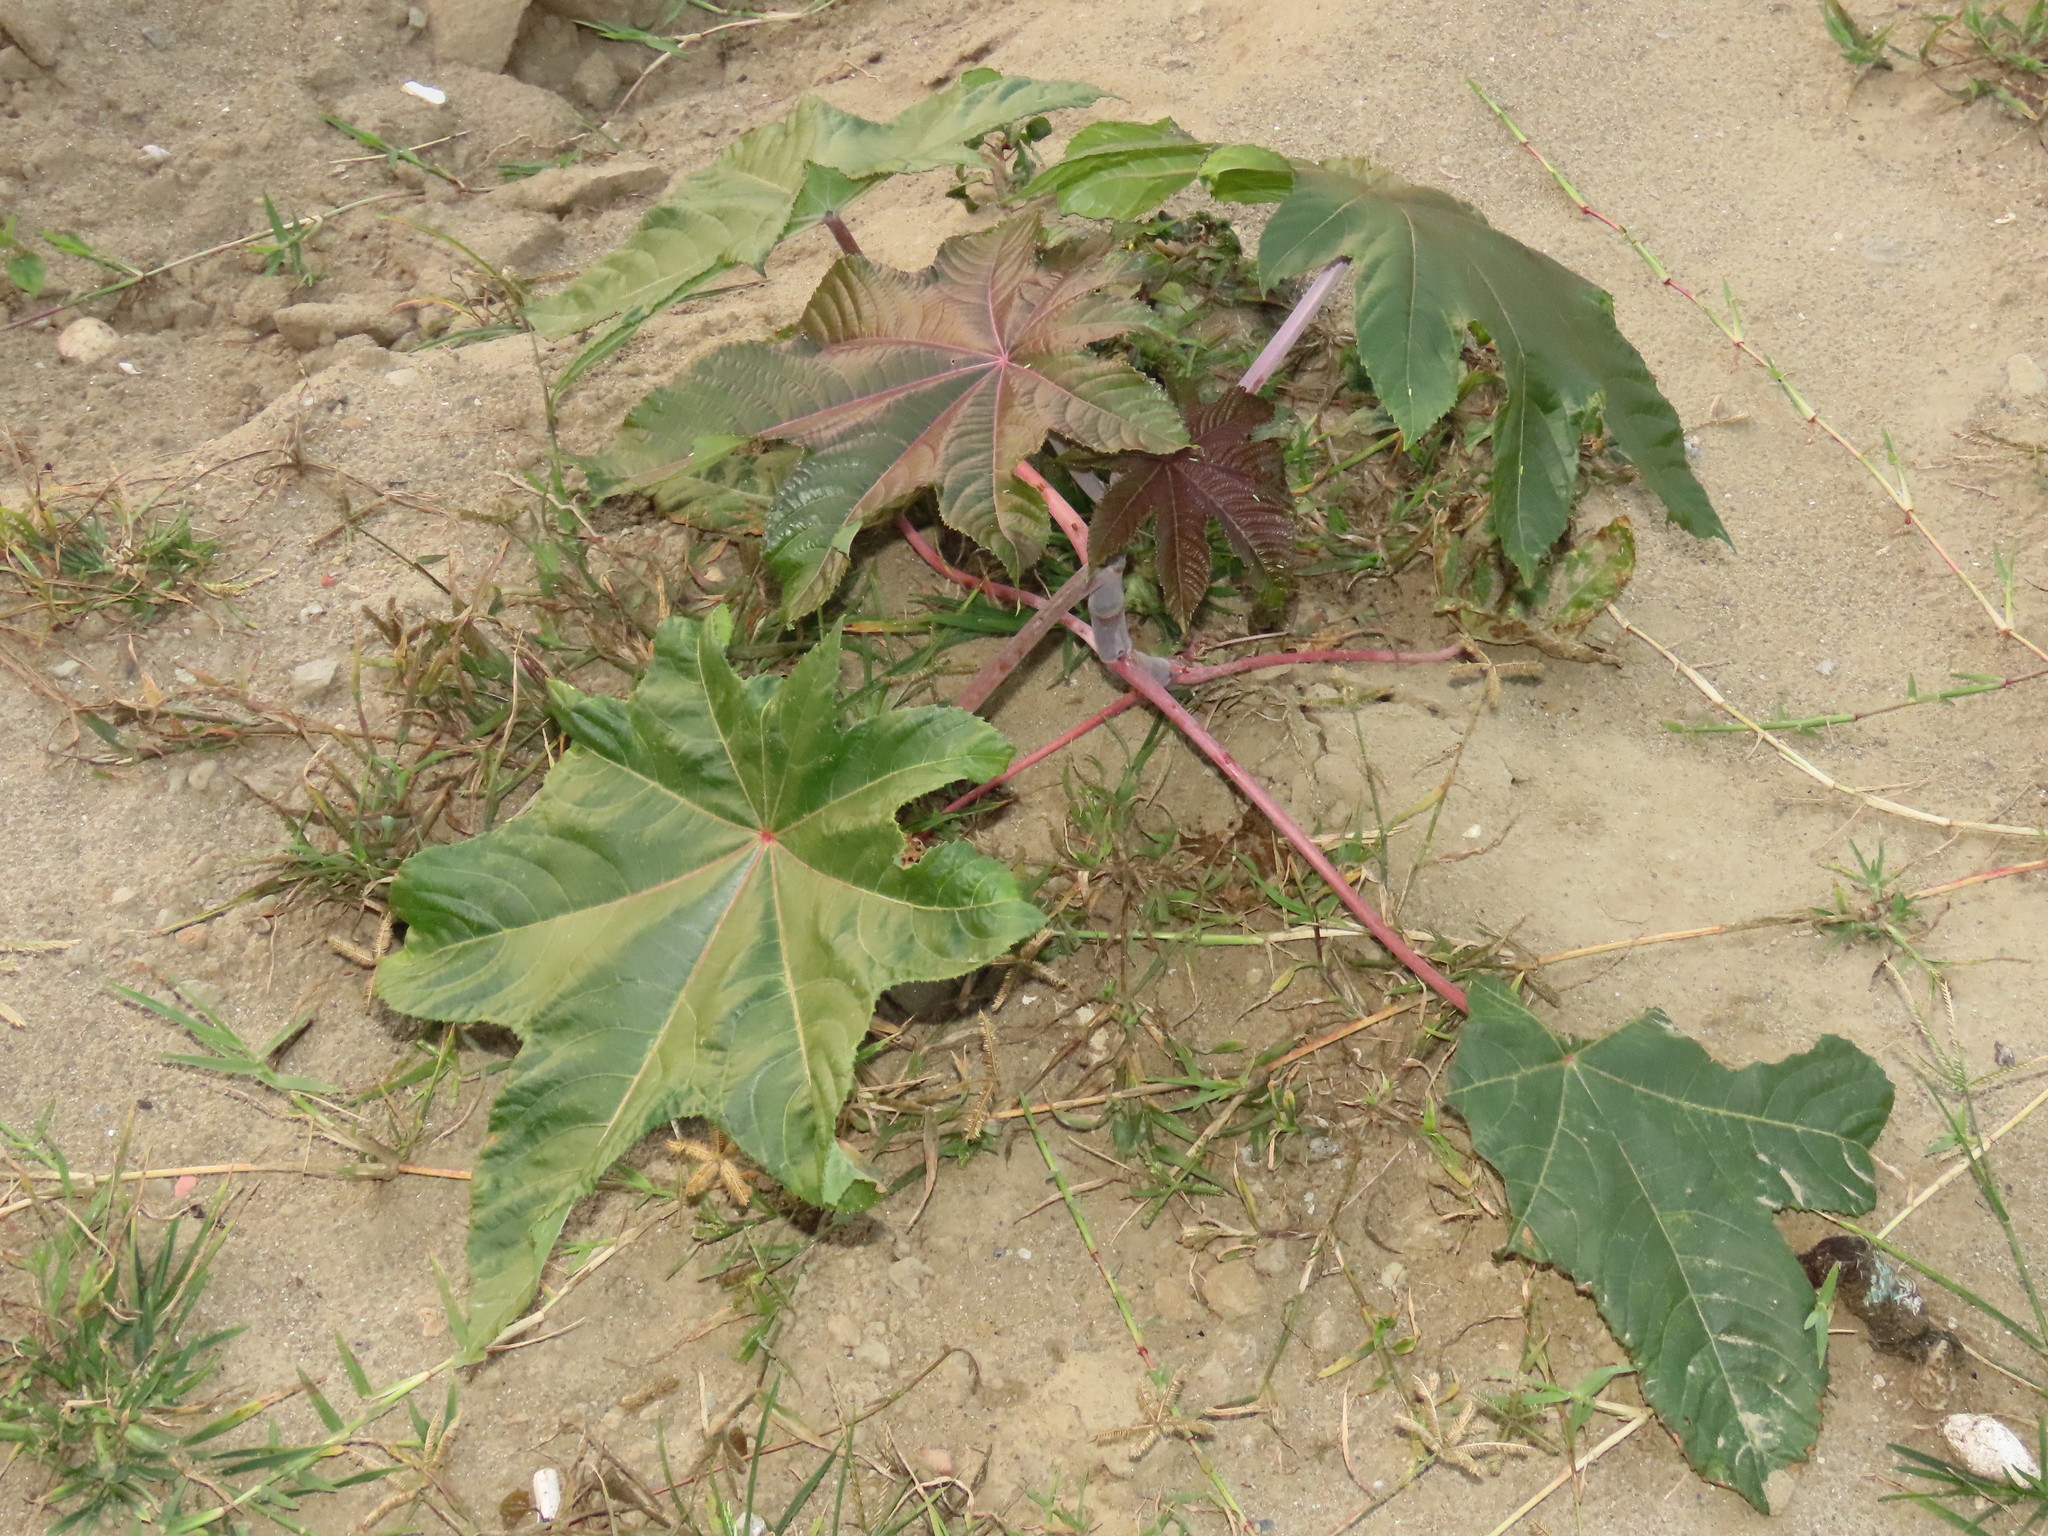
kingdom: Plantae
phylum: Tracheophyta
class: Magnoliopsida
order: Malpighiales
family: Euphorbiaceae
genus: Ricinus
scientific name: Ricinus communis
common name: Castor-oil-plant
